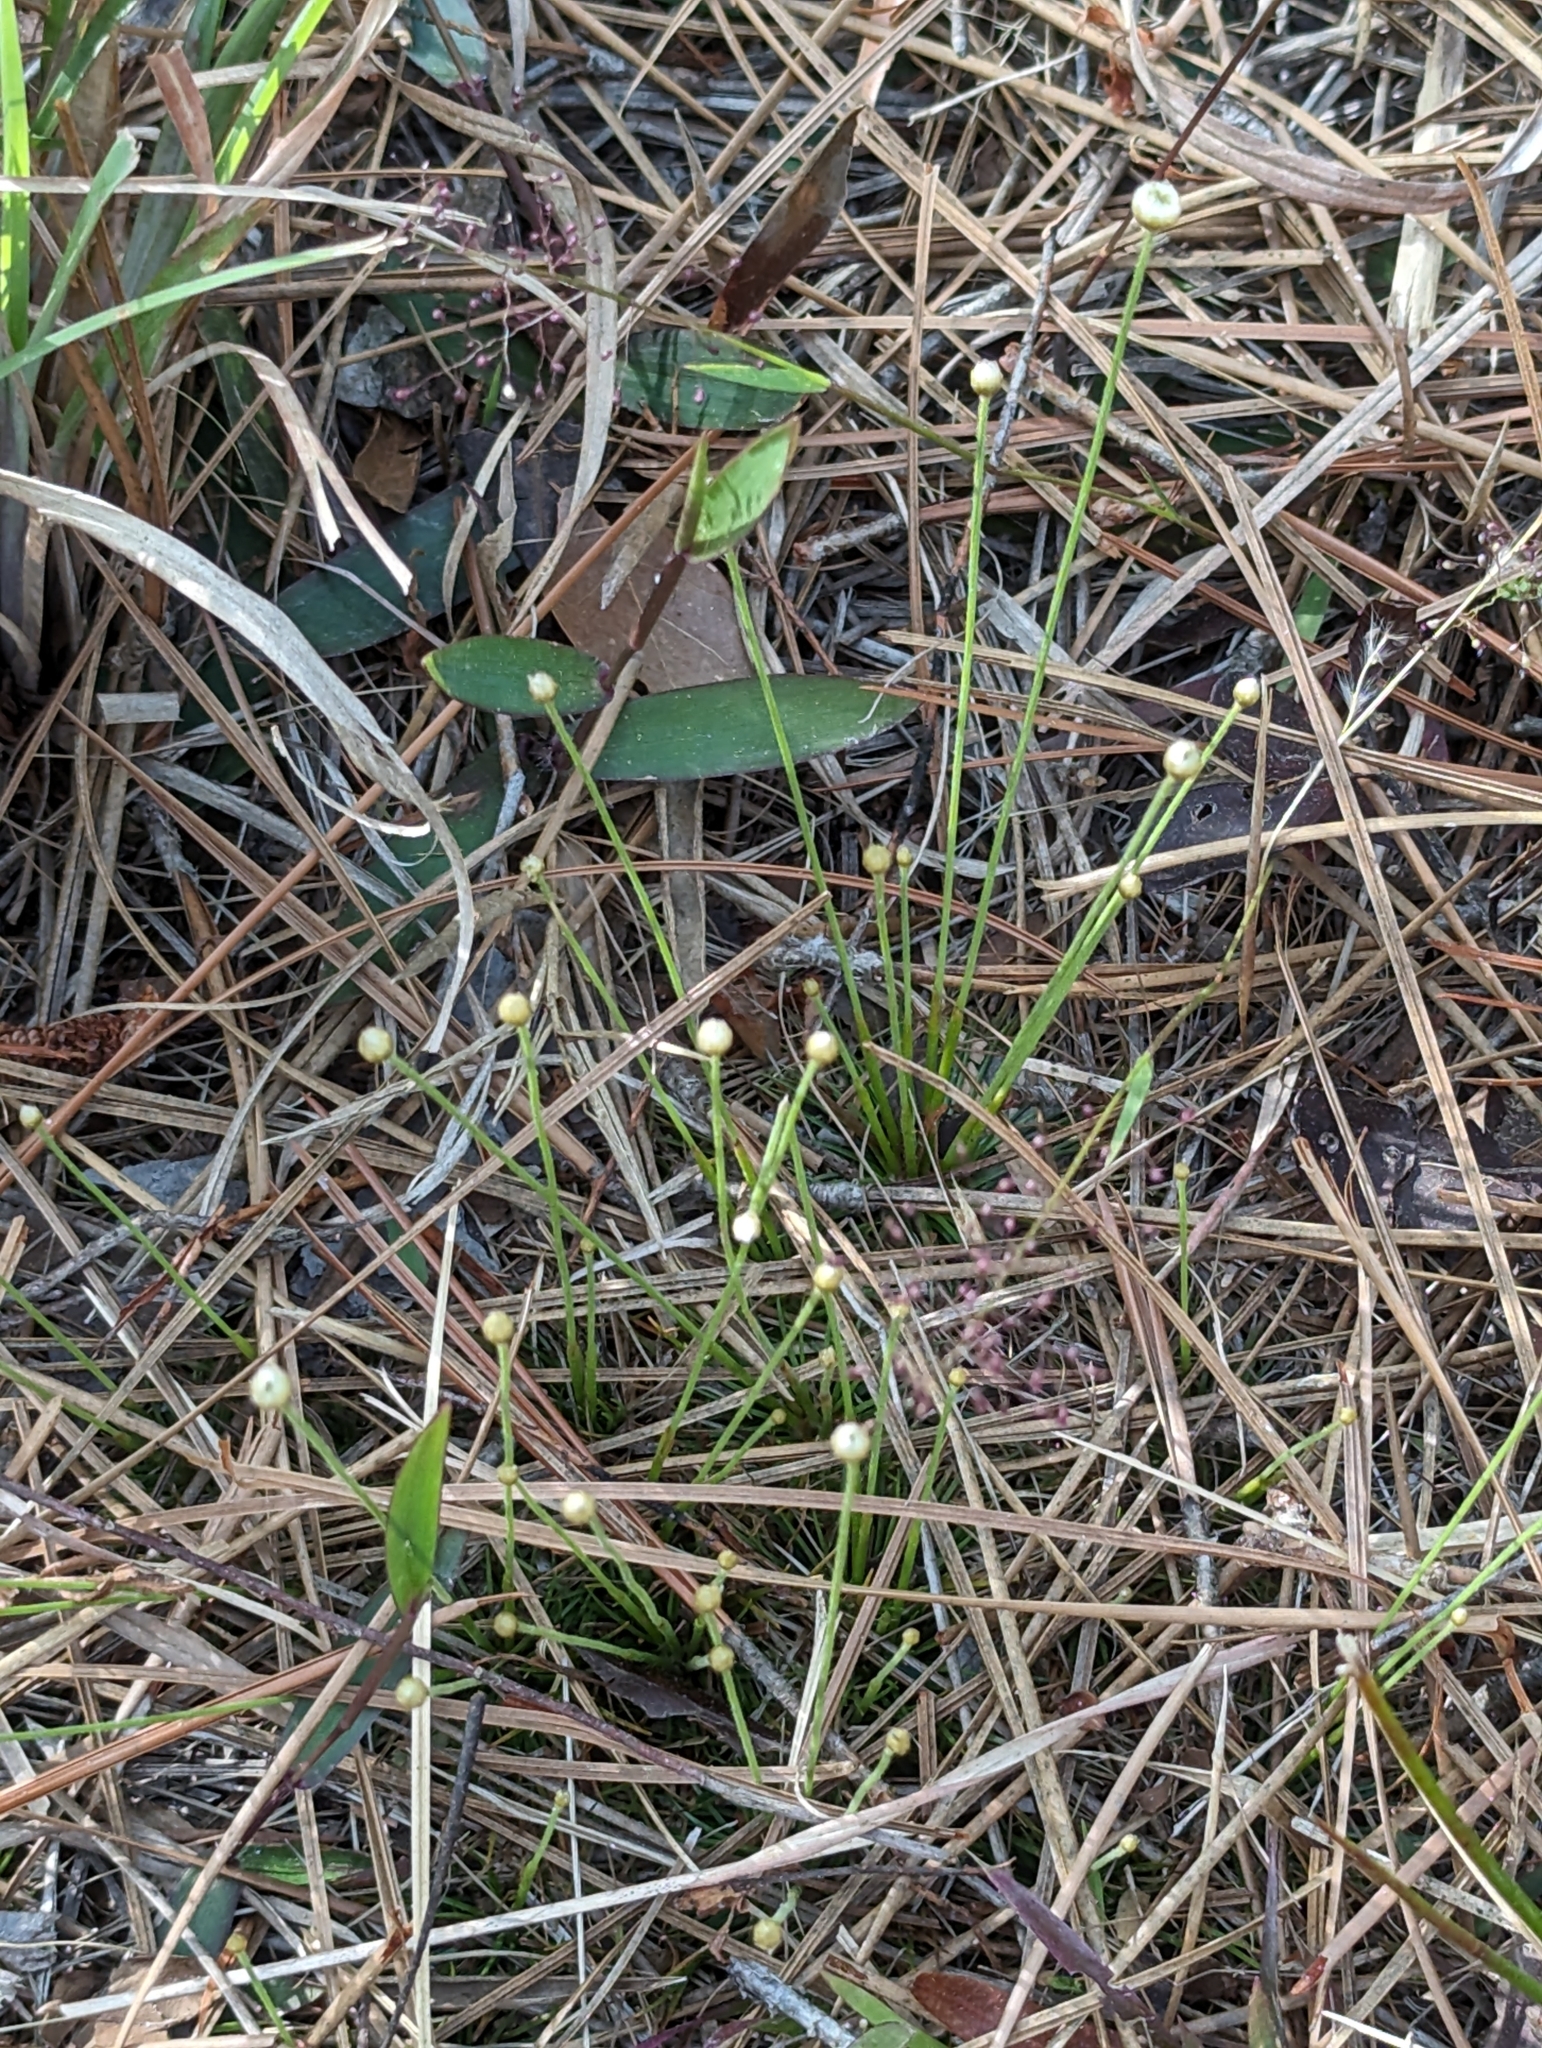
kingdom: Plantae
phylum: Tracheophyta
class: Liliopsida
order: Poales
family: Eriocaulaceae
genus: Syngonanthus
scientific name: Syngonanthus flavidulus
